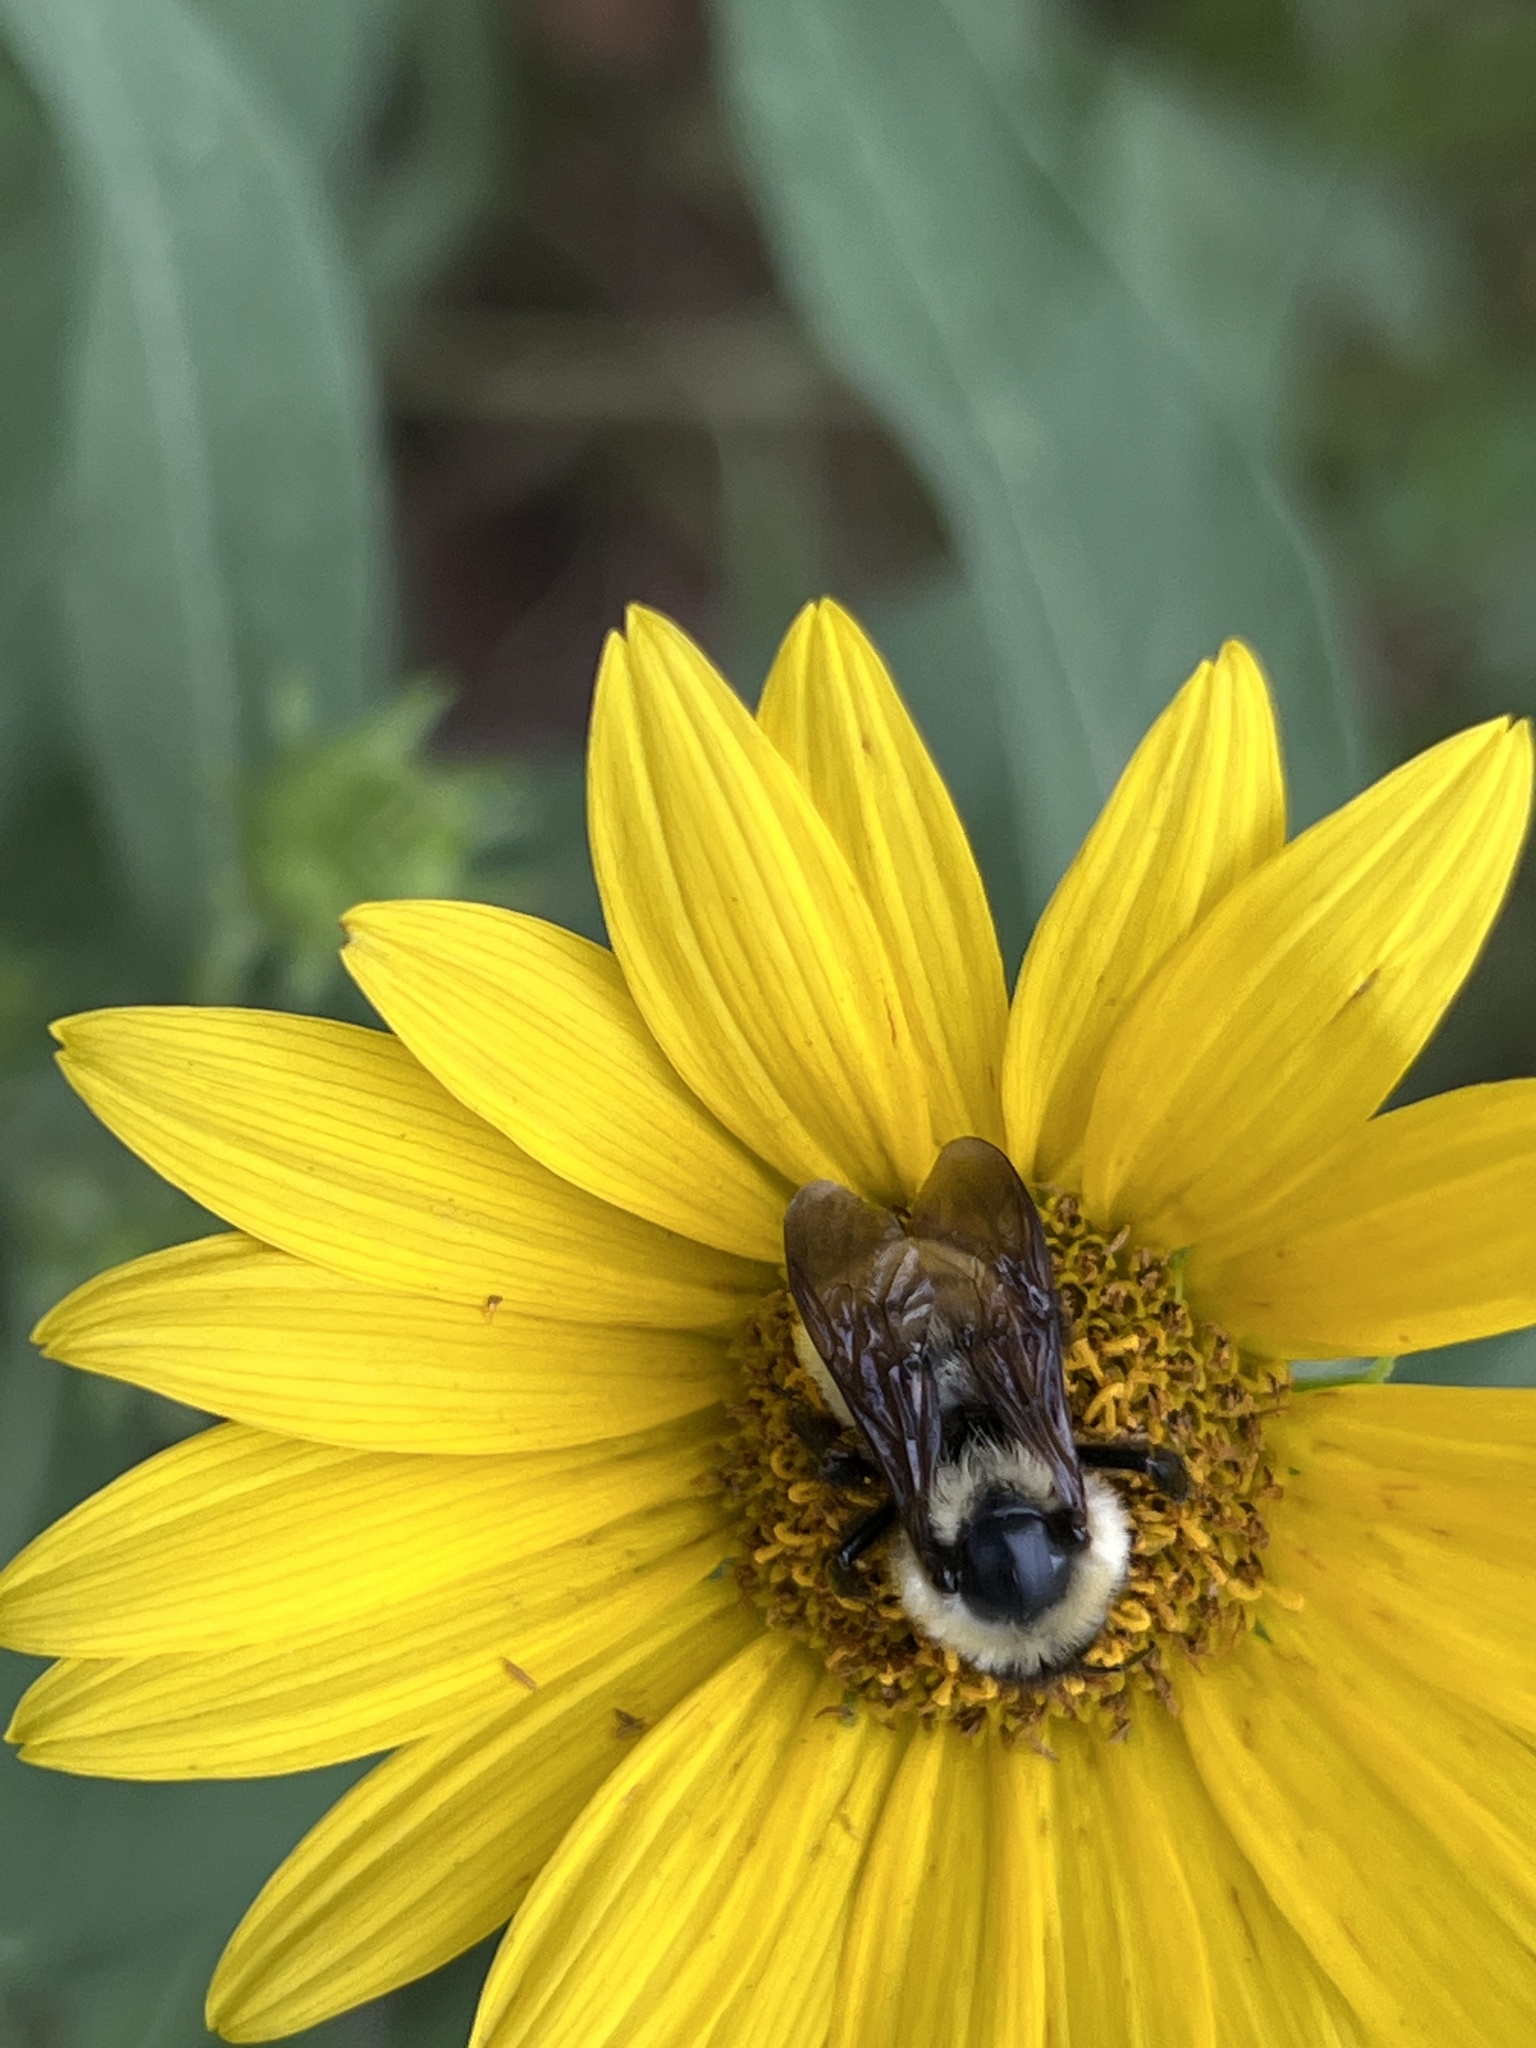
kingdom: Animalia
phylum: Arthropoda
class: Insecta
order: Hymenoptera
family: Apidae
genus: Bombus
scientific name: Bombus fervidus
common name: Yellow bumble bee
